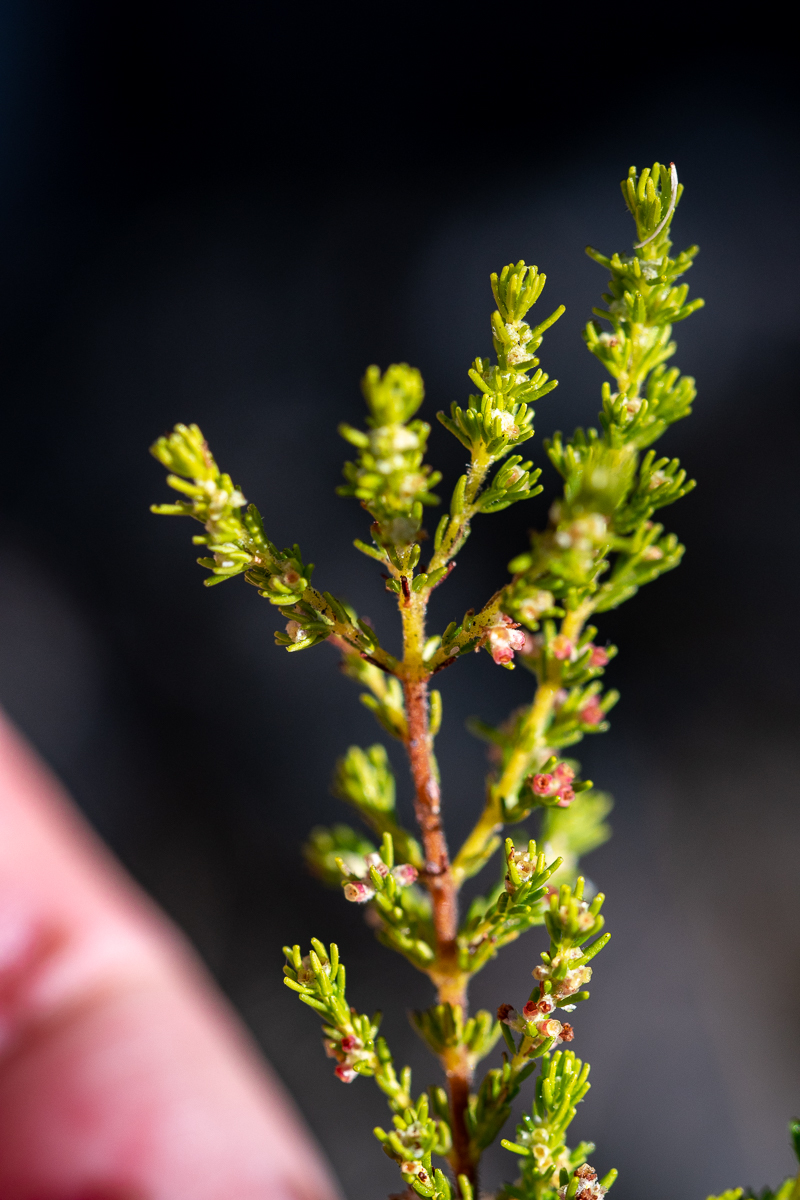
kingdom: Plantae
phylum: Tracheophyta
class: Magnoliopsida
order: Ericales
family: Ericaceae
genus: Erica
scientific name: Erica muscosa
